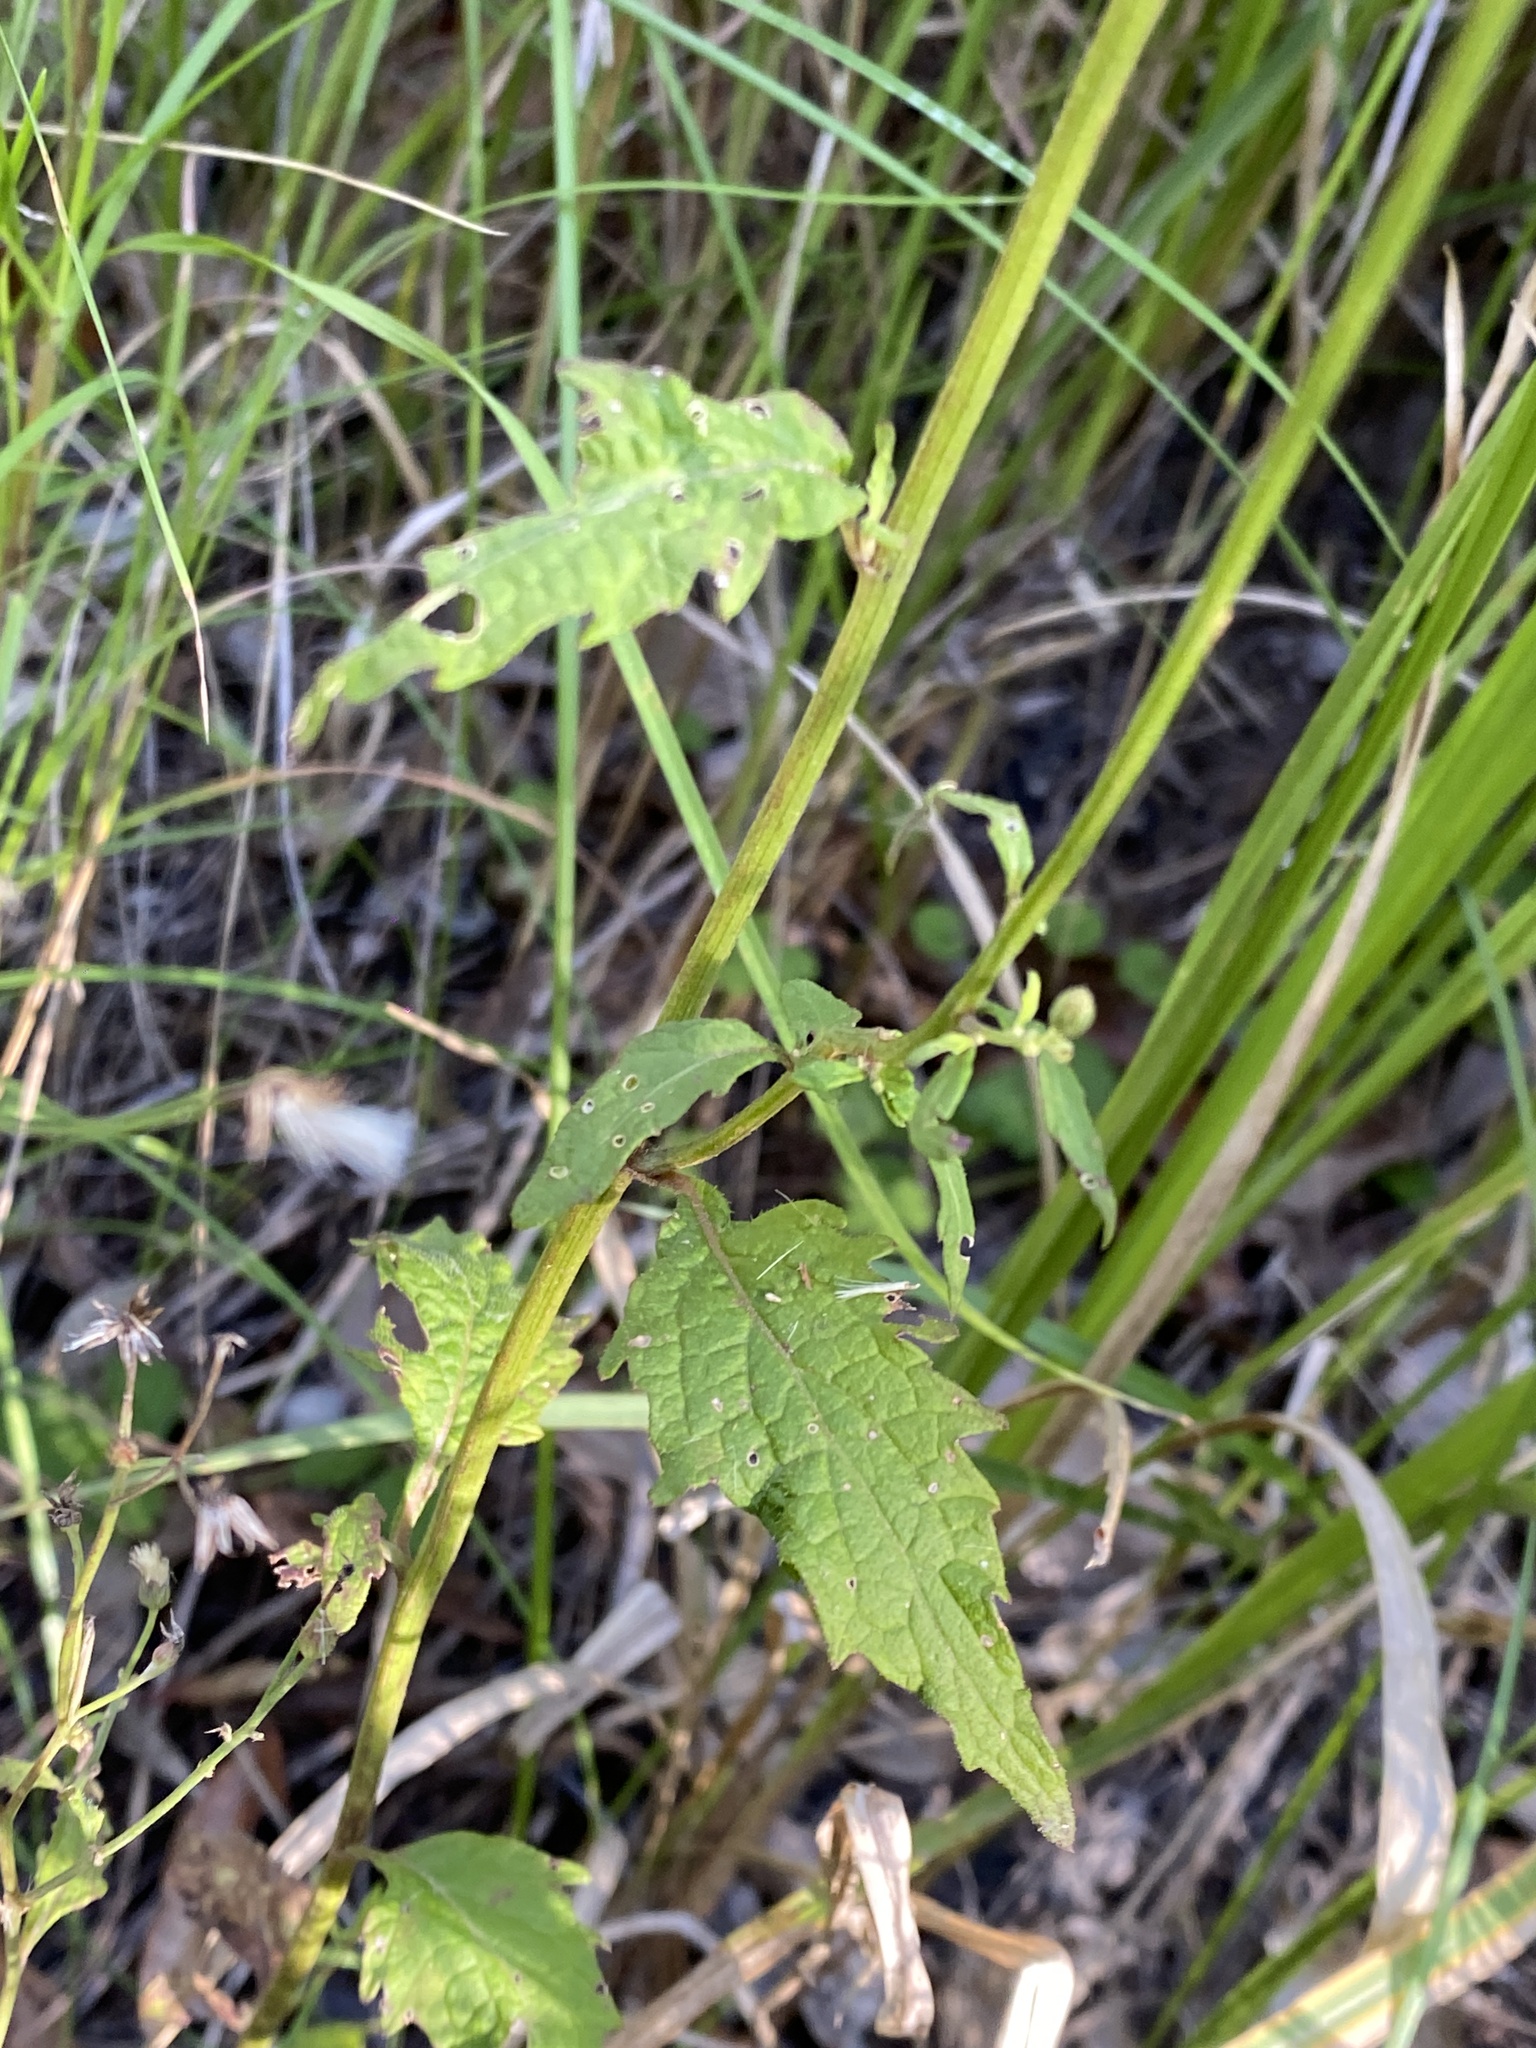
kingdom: Plantae
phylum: Tracheophyta
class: Magnoliopsida
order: Asterales
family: Asteraceae
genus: Cyanthillium
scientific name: Cyanthillium cinereum
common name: Little ironweed
